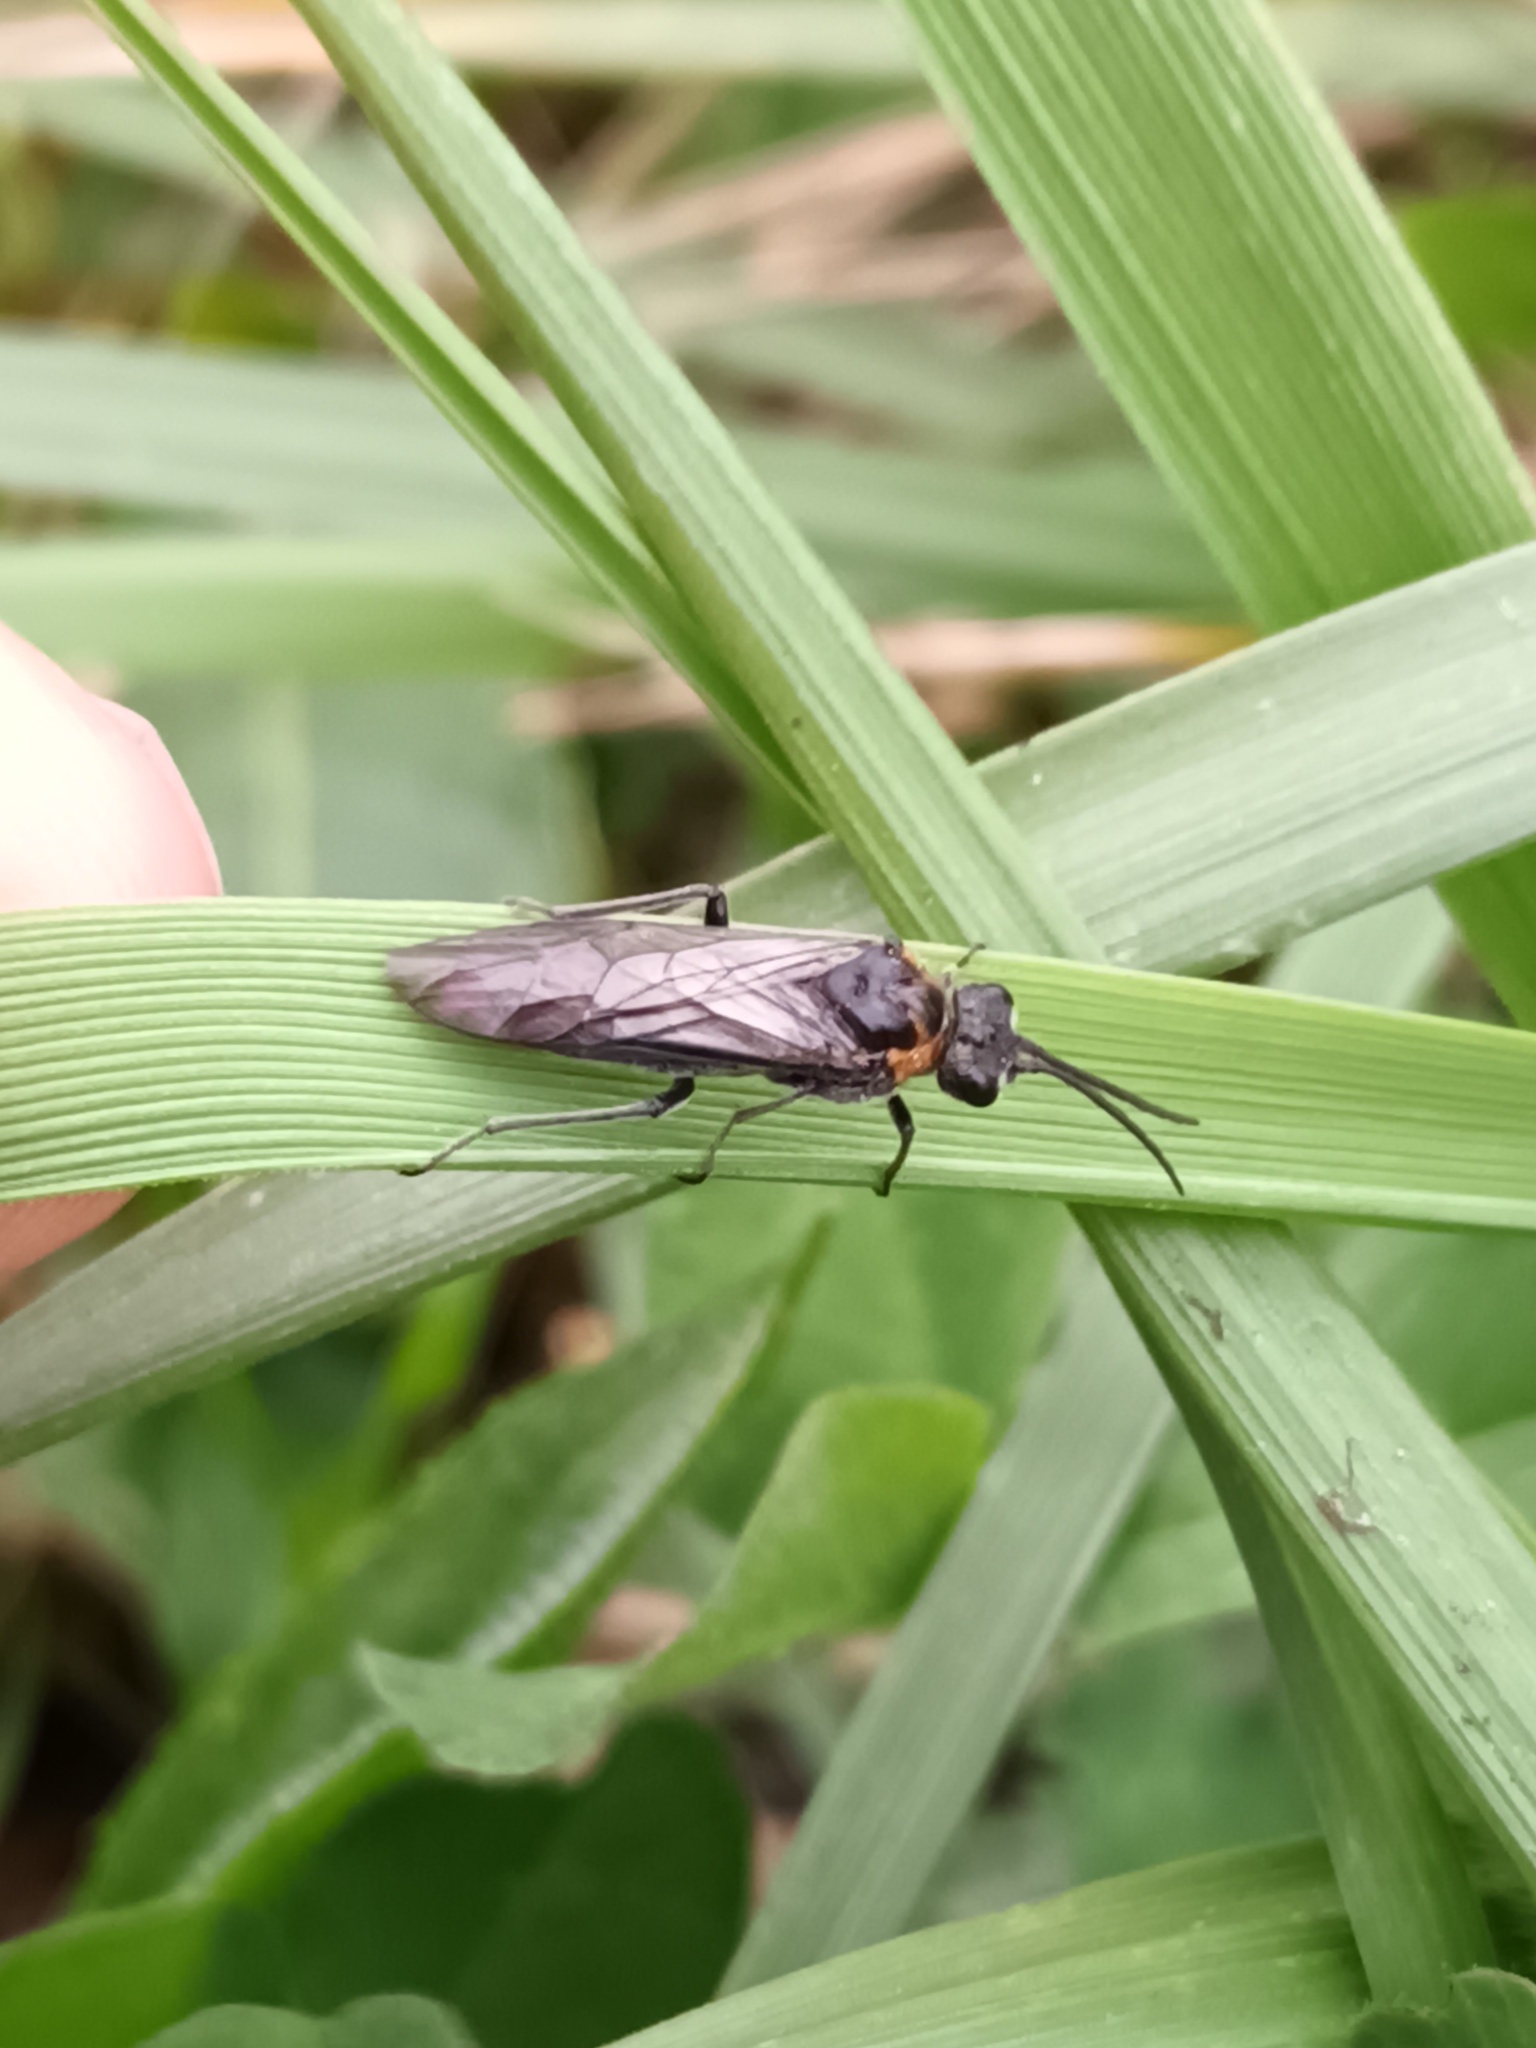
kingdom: Animalia
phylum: Arthropoda
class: Insecta
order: Hymenoptera
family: Tenthredinidae
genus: Dolerus
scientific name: Dolerus haematodes
